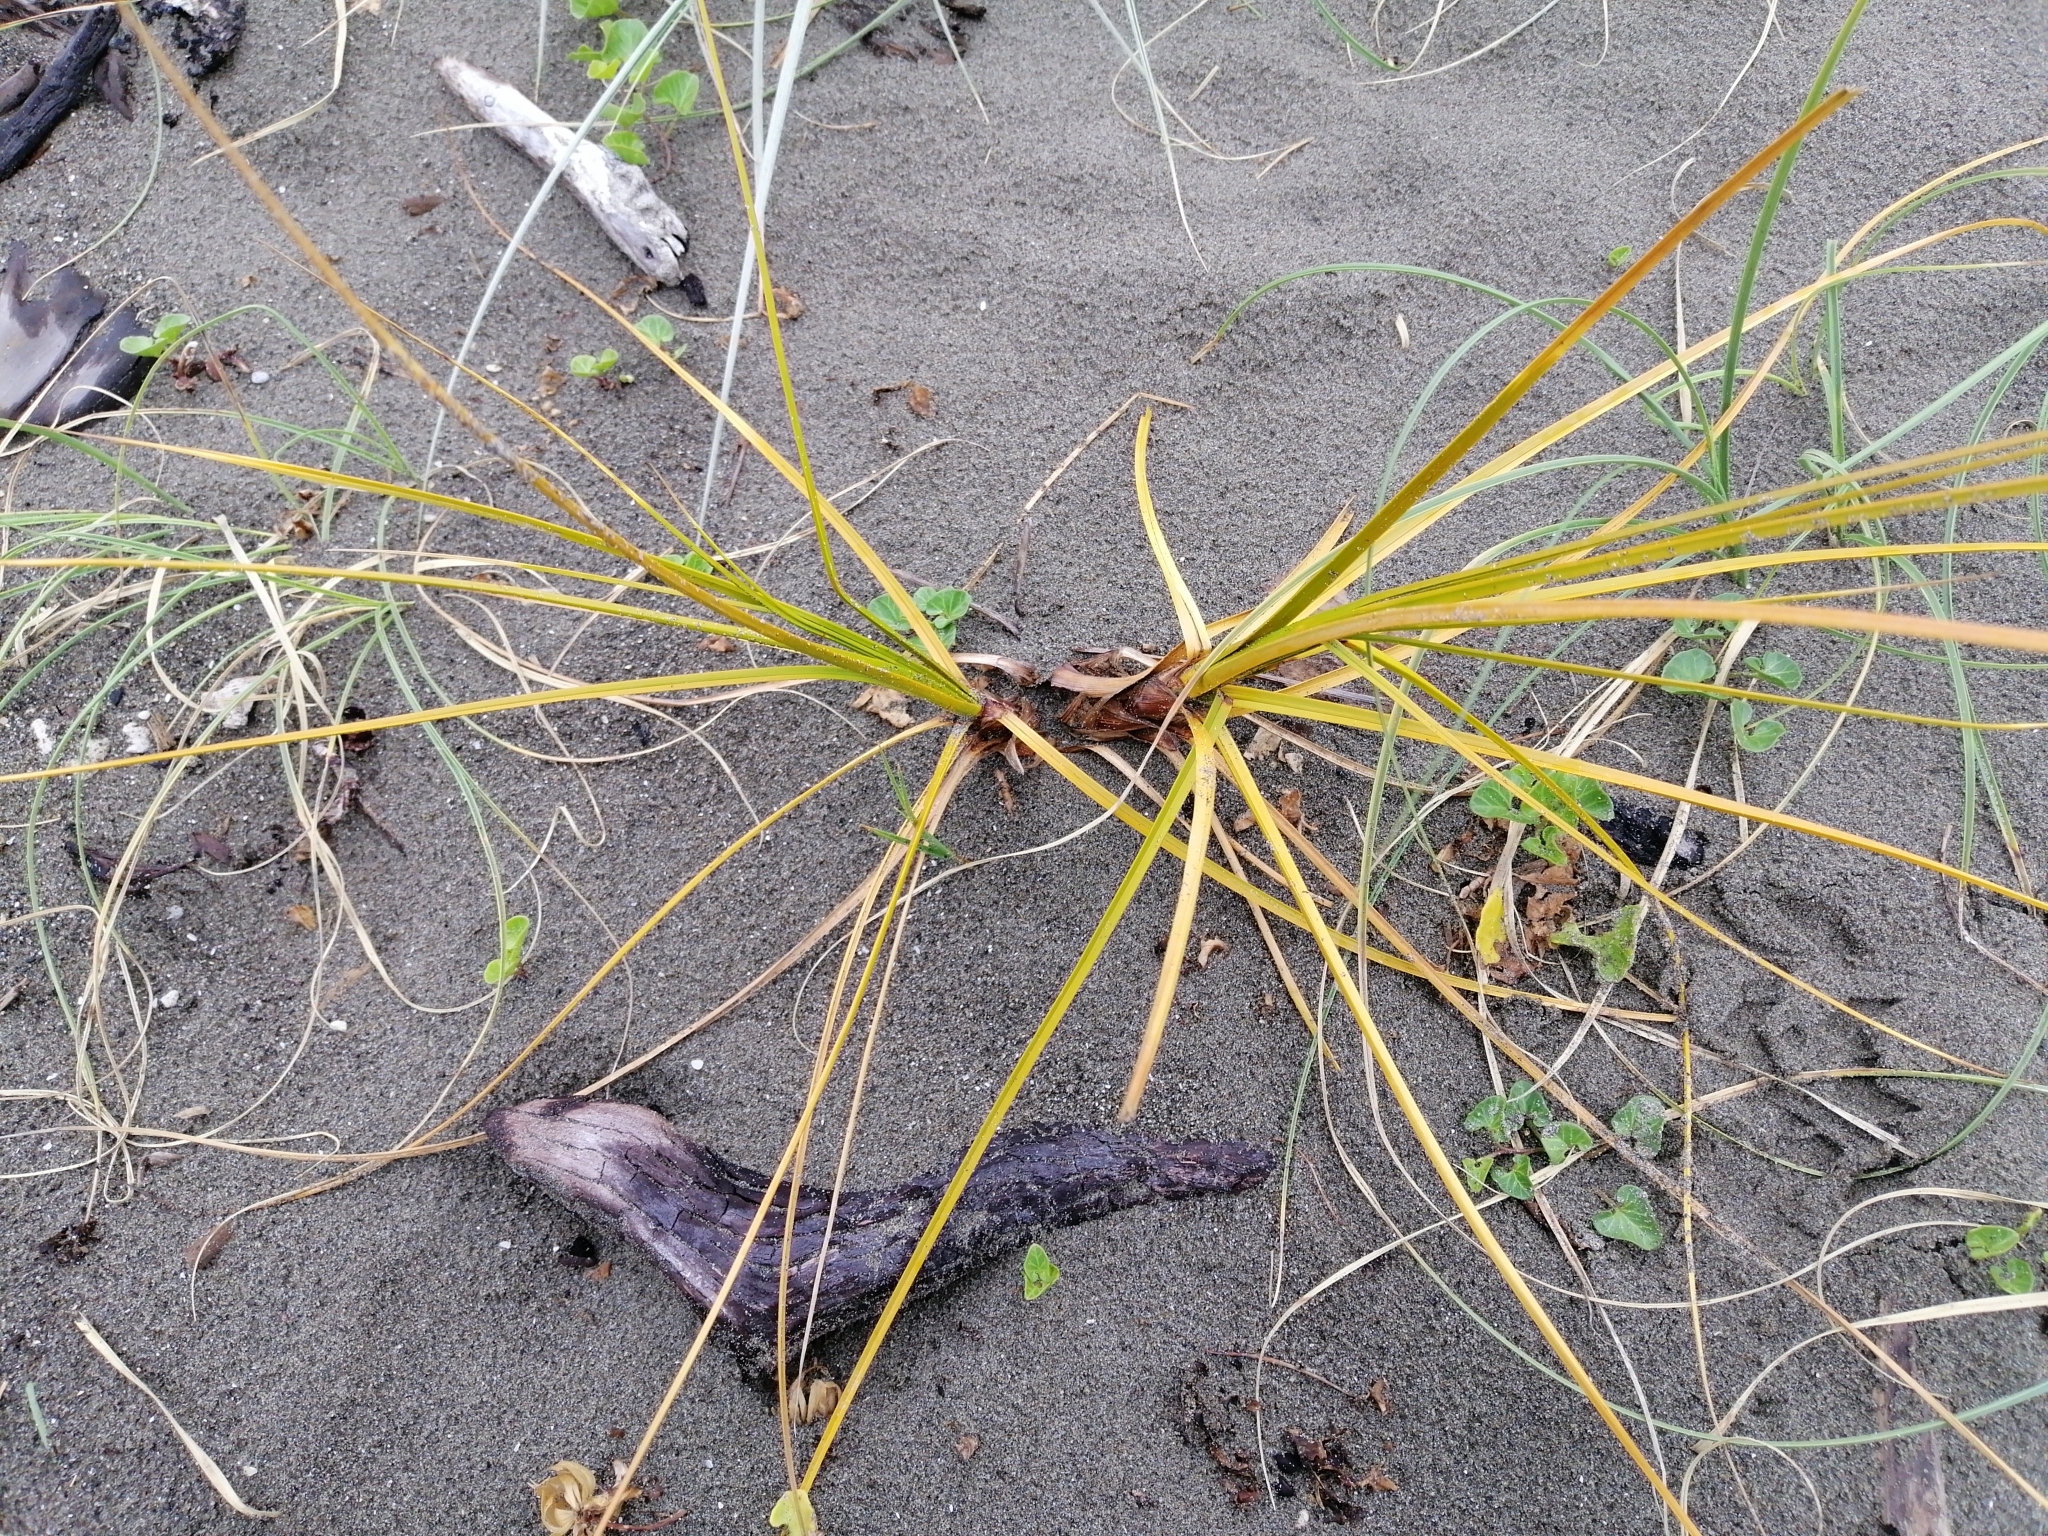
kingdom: Plantae
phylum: Tracheophyta
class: Liliopsida
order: Poales
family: Cyperaceae
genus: Ficinia
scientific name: Ficinia spiralis
